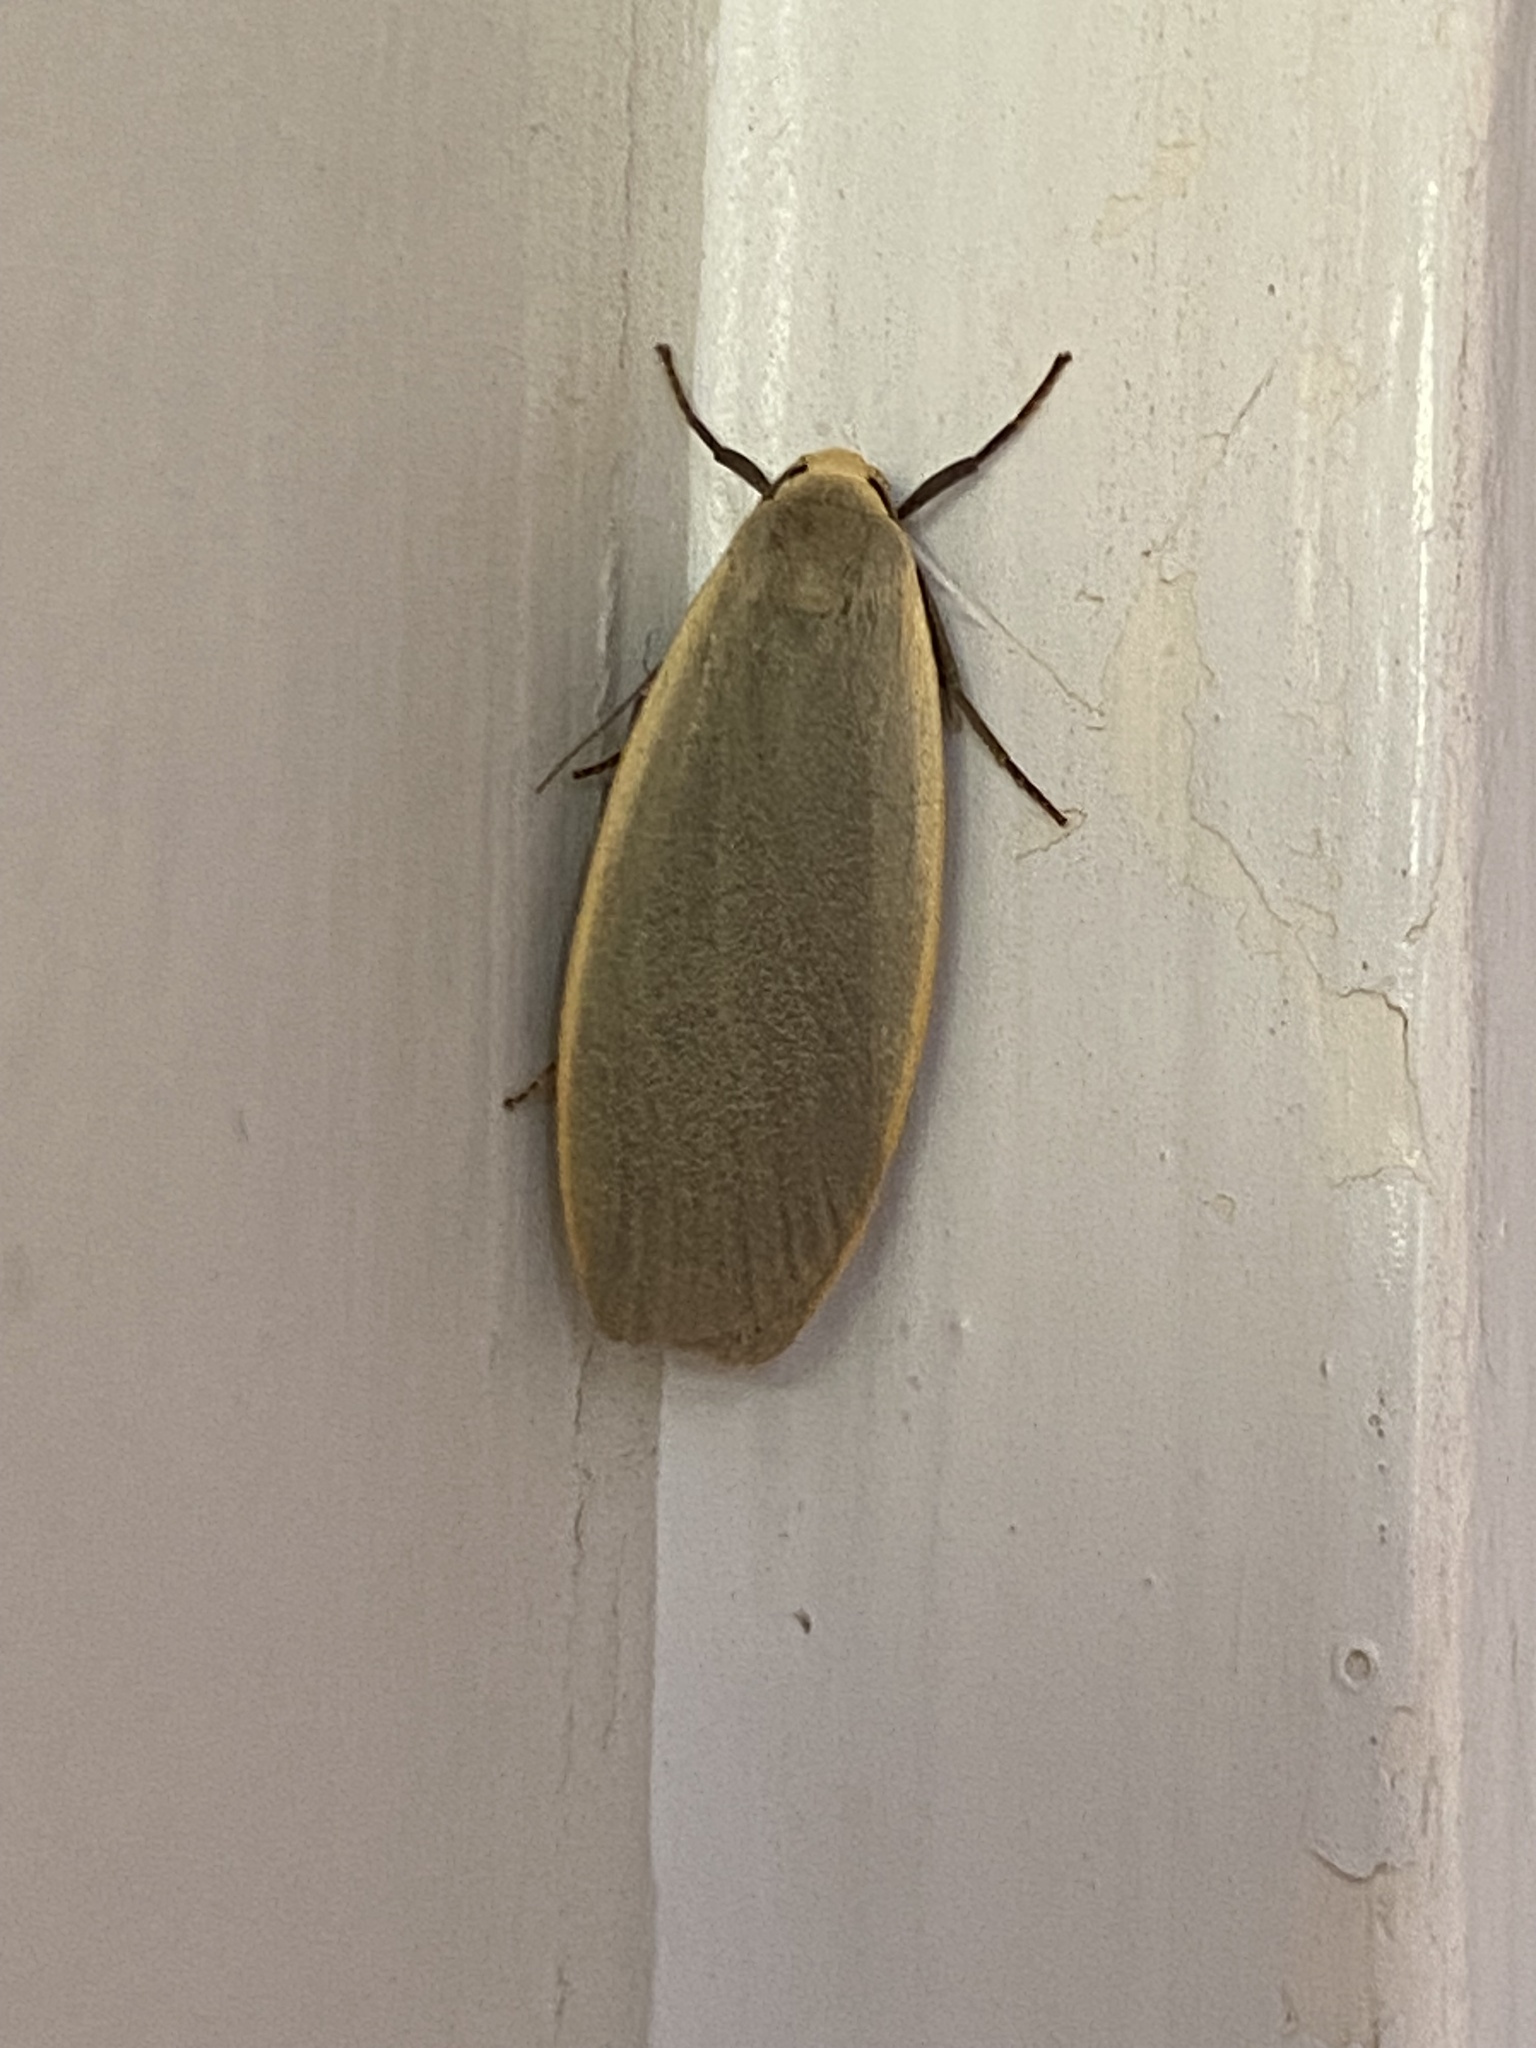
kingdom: Animalia
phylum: Arthropoda
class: Insecta
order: Lepidoptera
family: Erebidae
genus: Collita
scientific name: Collita griseola
